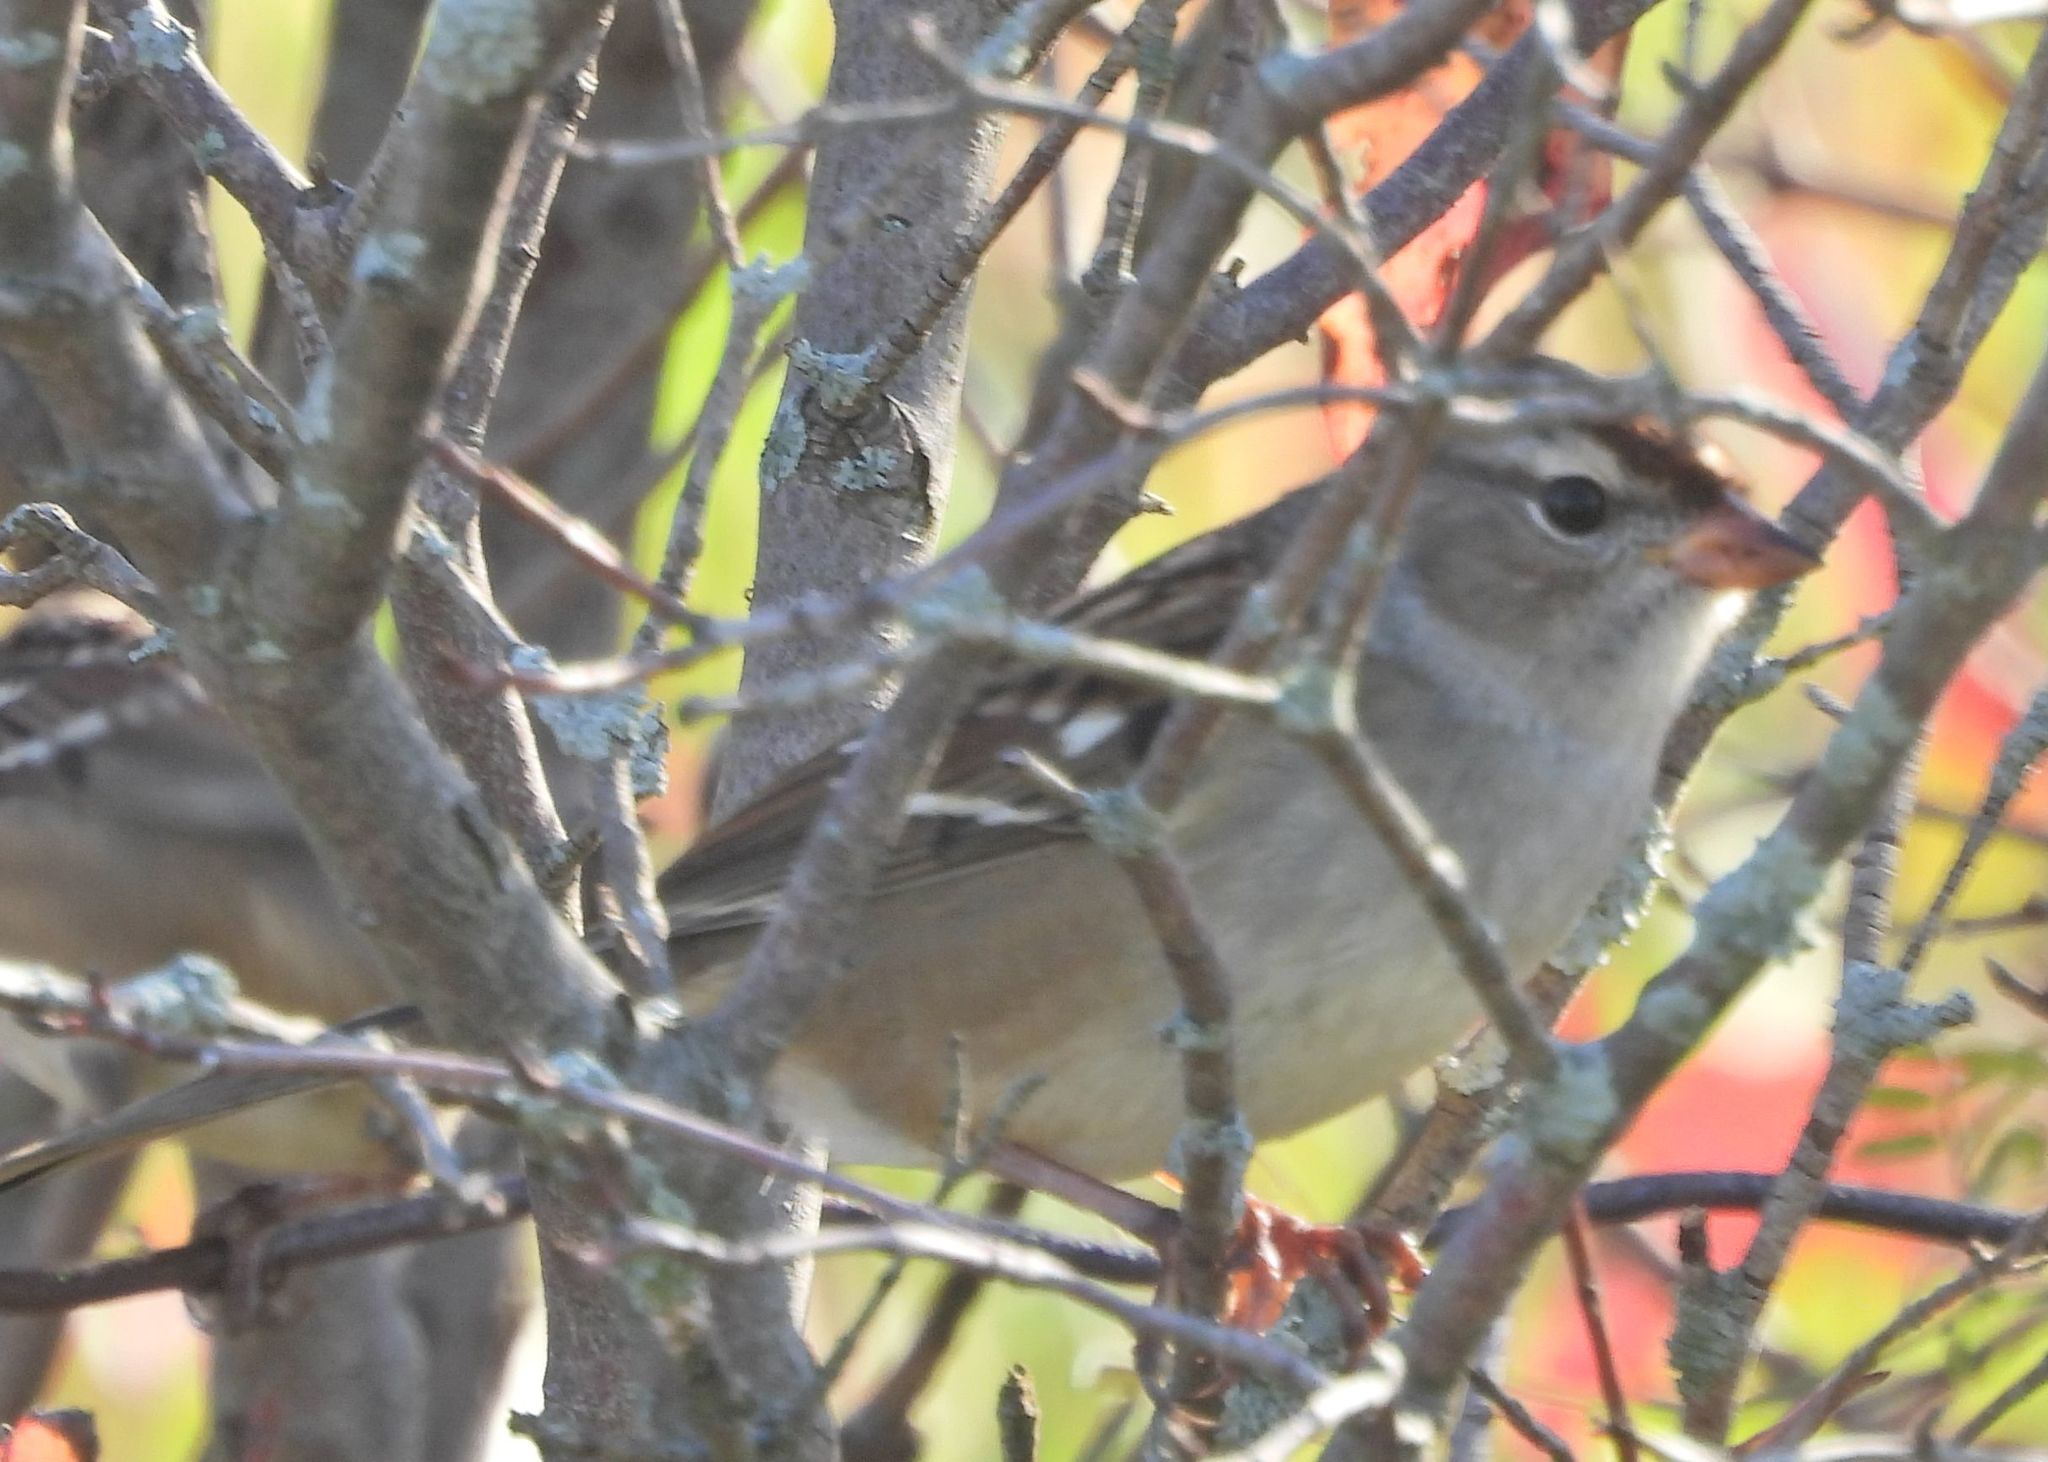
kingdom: Animalia
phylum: Chordata
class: Aves
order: Passeriformes
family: Passerellidae
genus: Zonotrichia
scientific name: Zonotrichia leucophrys
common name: White-crowned sparrow
